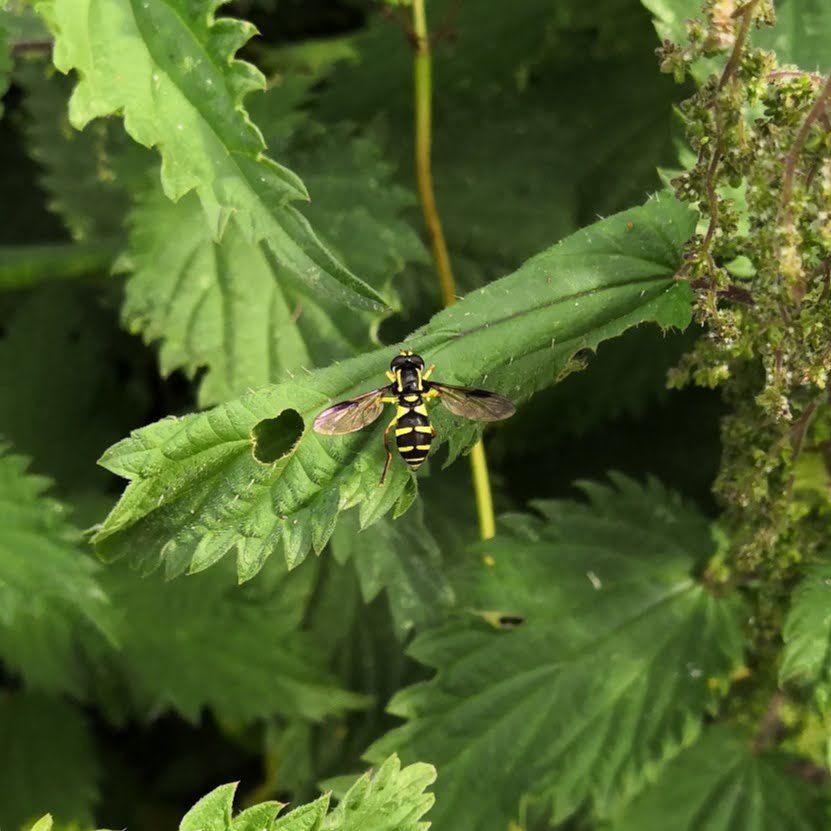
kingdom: Animalia
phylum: Arthropoda
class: Insecta
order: Diptera
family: Syrphidae
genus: Philhelius
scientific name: Philhelius pedissequum
